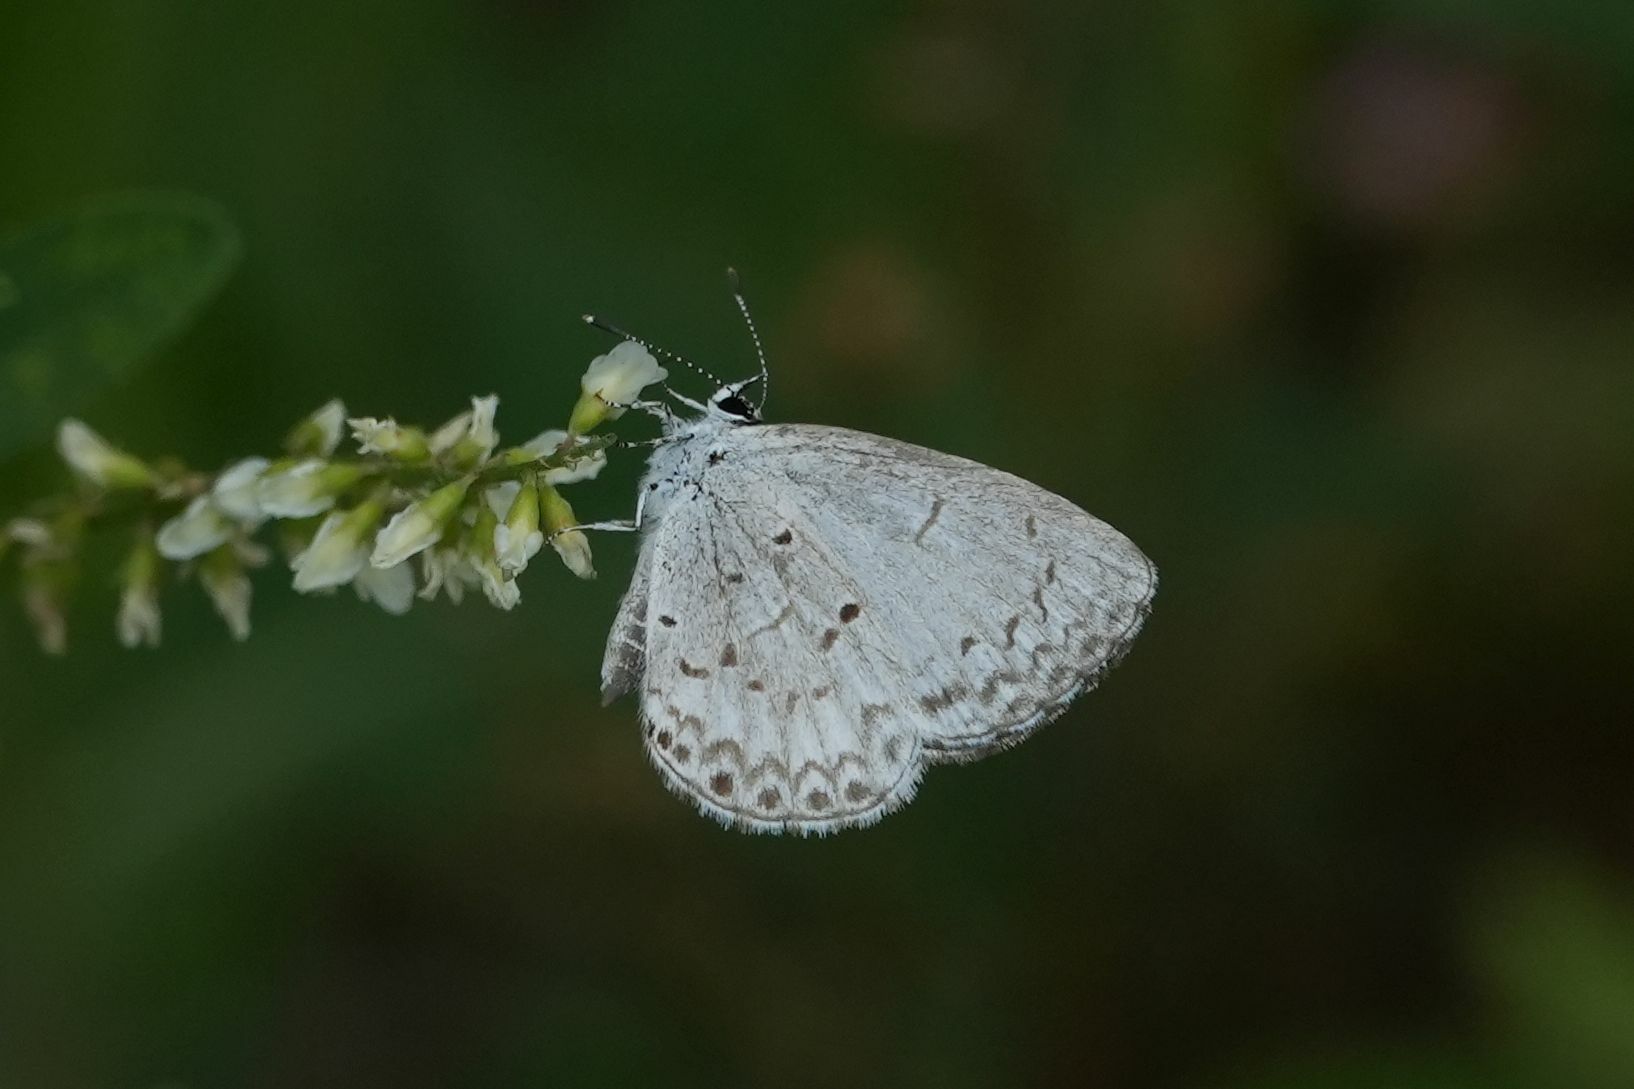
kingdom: Animalia
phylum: Arthropoda
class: Insecta
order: Lepidoptera
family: Lycaenidae
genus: Celastrina
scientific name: Celastrina lucia
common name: Lucia azure
